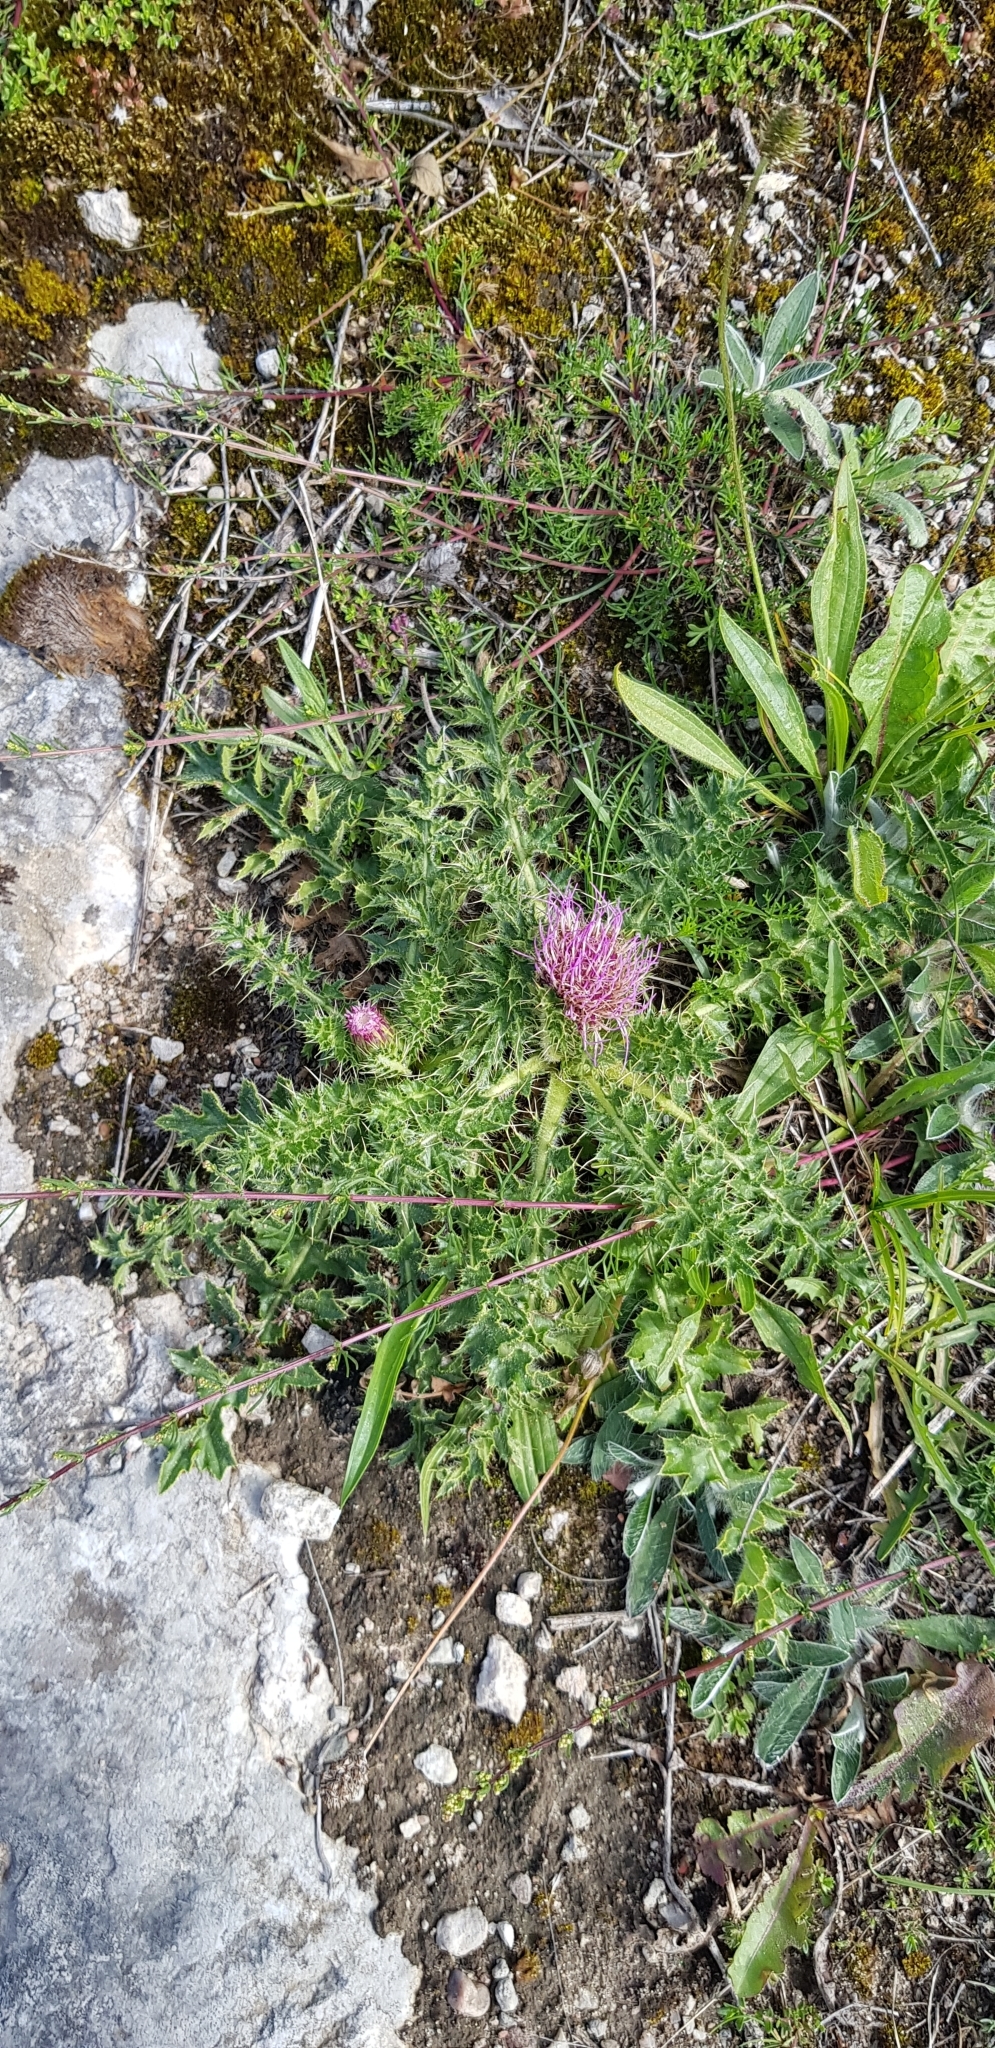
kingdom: Plantae
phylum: Tracheophyta
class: Magnoliopsida
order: Asterales
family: Asteraceae
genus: Cirsium
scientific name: Cirsium acaulon
